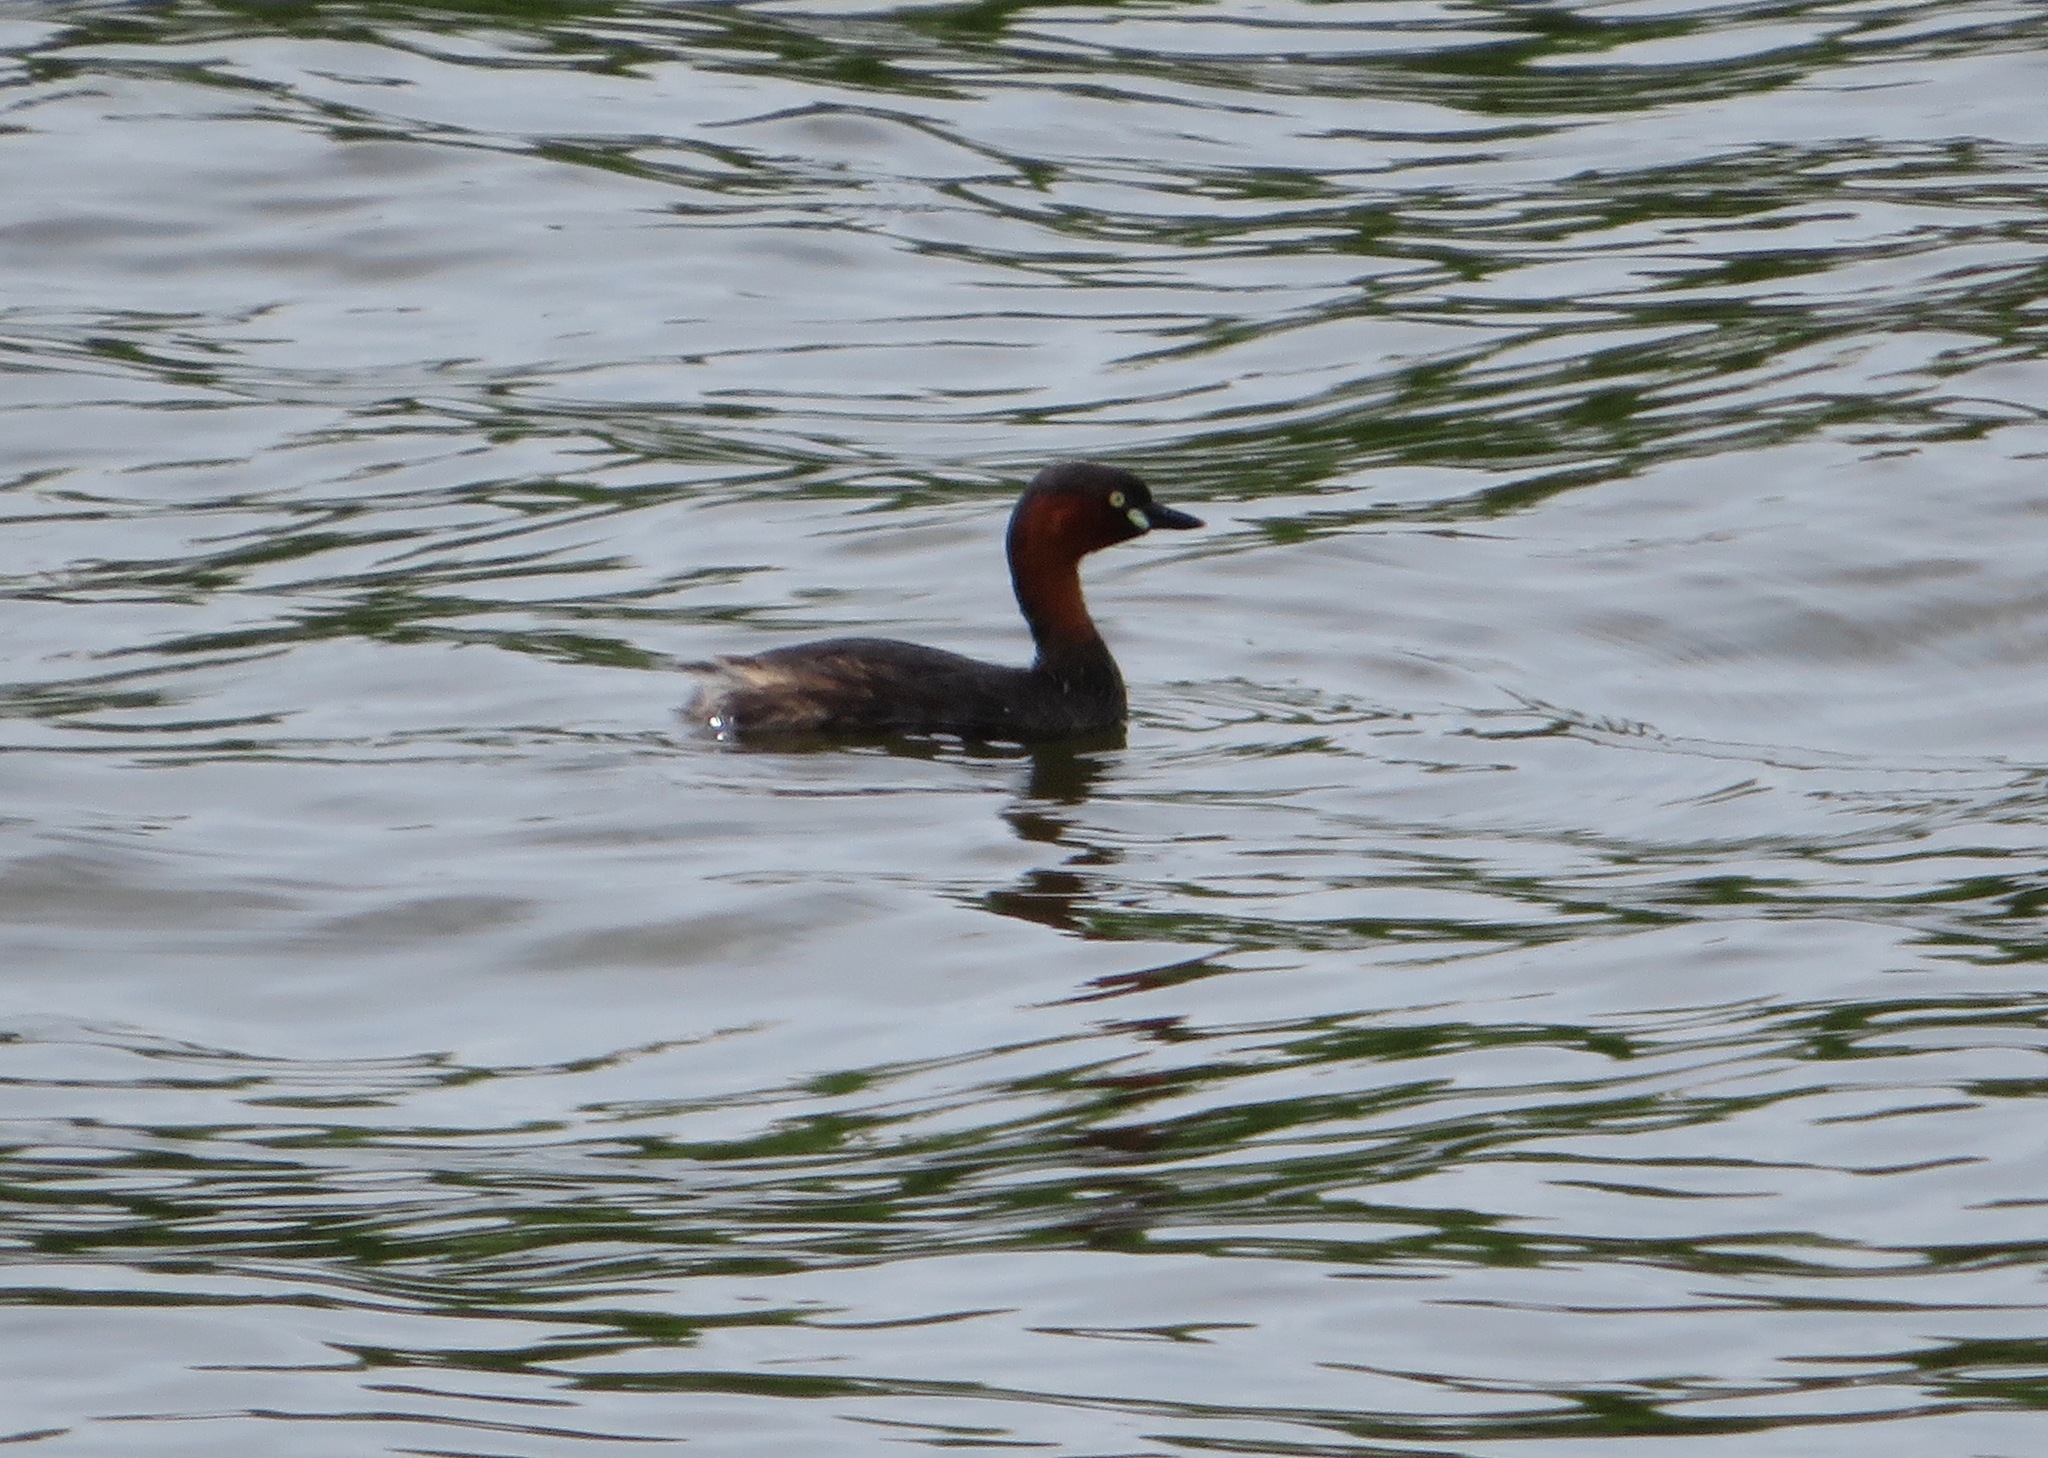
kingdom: Animalia
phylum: Chordata
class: Aves
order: Podicipediformes
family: Podicipedidae
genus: Tachybaptus
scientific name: Tachybaptus ruficollis
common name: Little grebe
